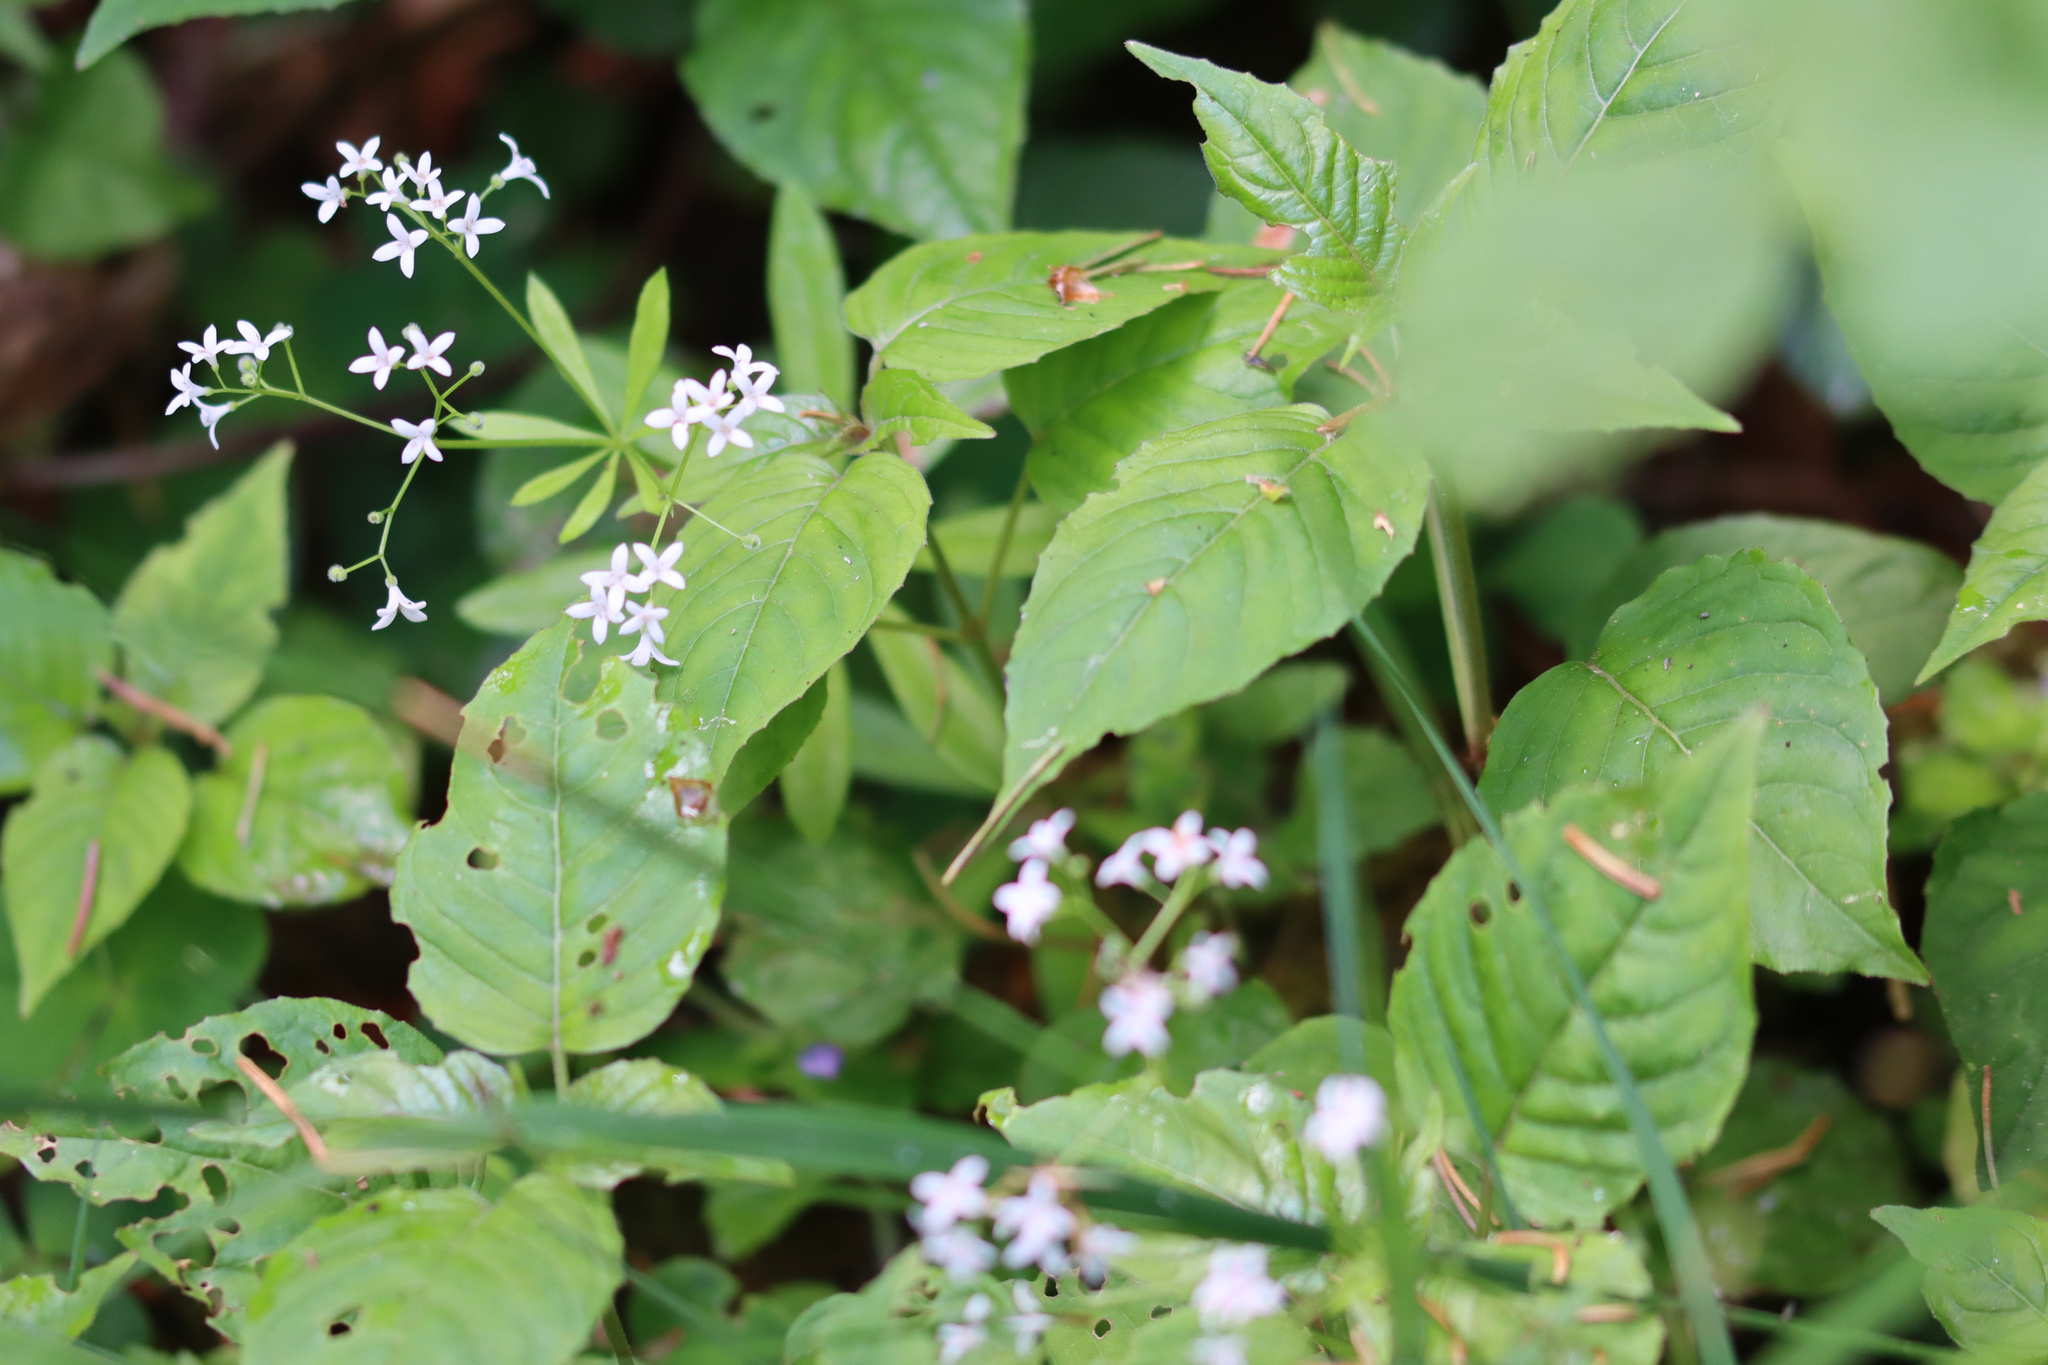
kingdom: Plantae
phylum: Tracheophyta
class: Magnoliopsida
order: Gentianales
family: Rubiaceae
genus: Galium
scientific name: Galium odoratum
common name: Sweet woodruff
